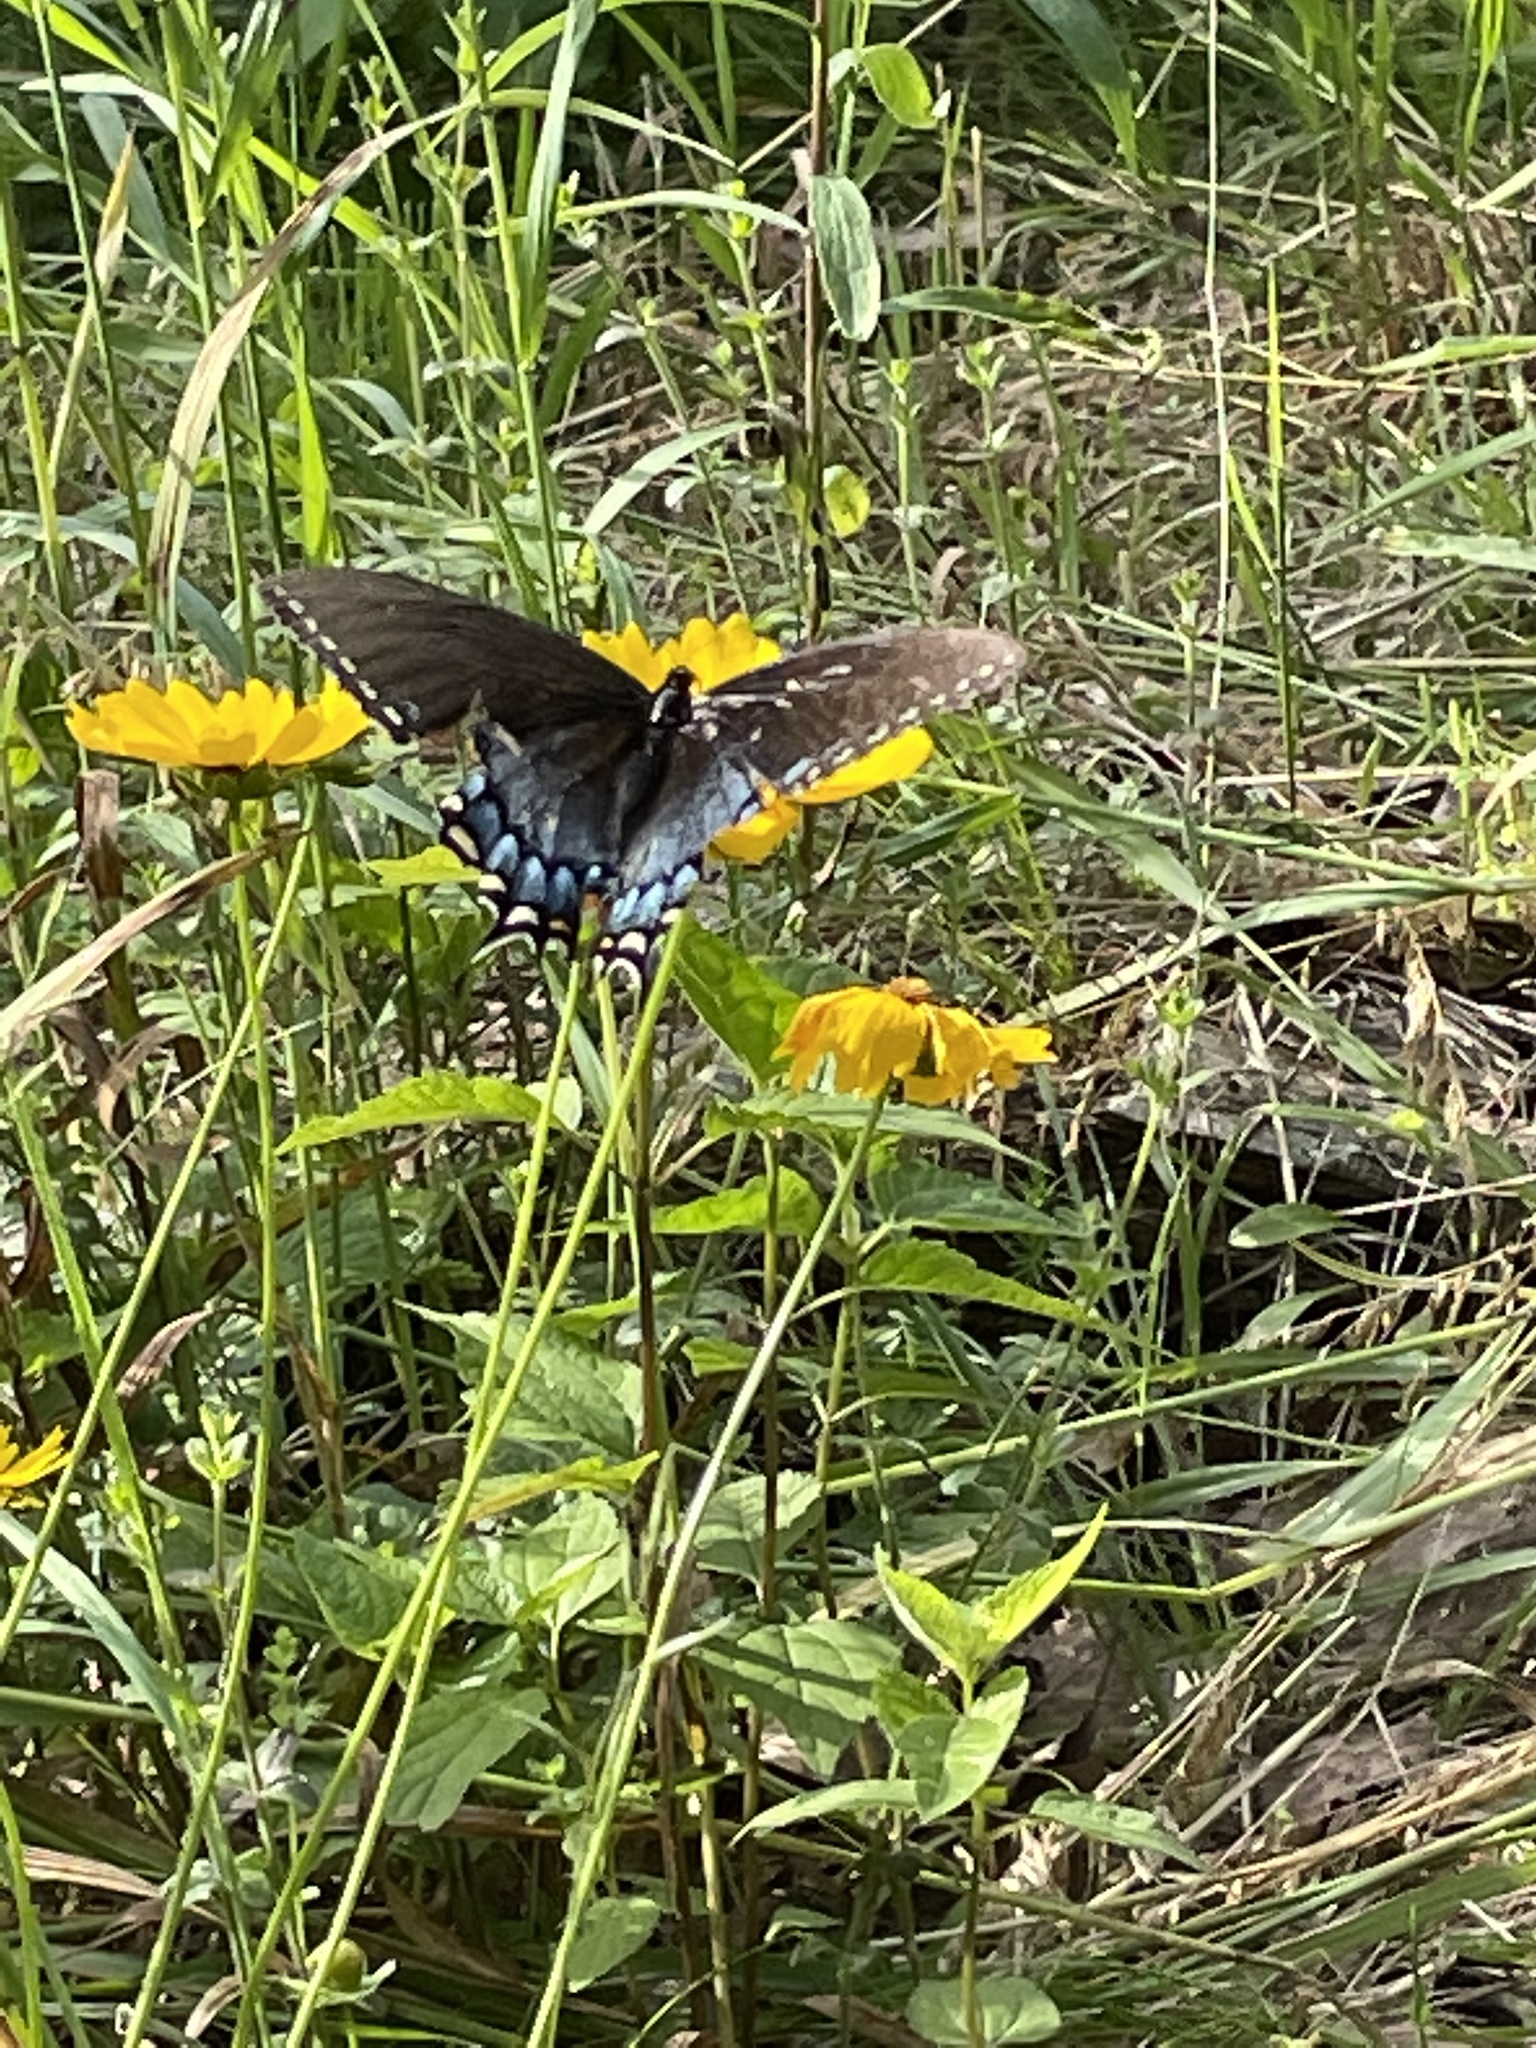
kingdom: Animalia
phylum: Arthropoda
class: Insecta
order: Lepidoptera
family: Papilionidae
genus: Papilio
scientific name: Papilio glaucus
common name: Tiger swallowtail
